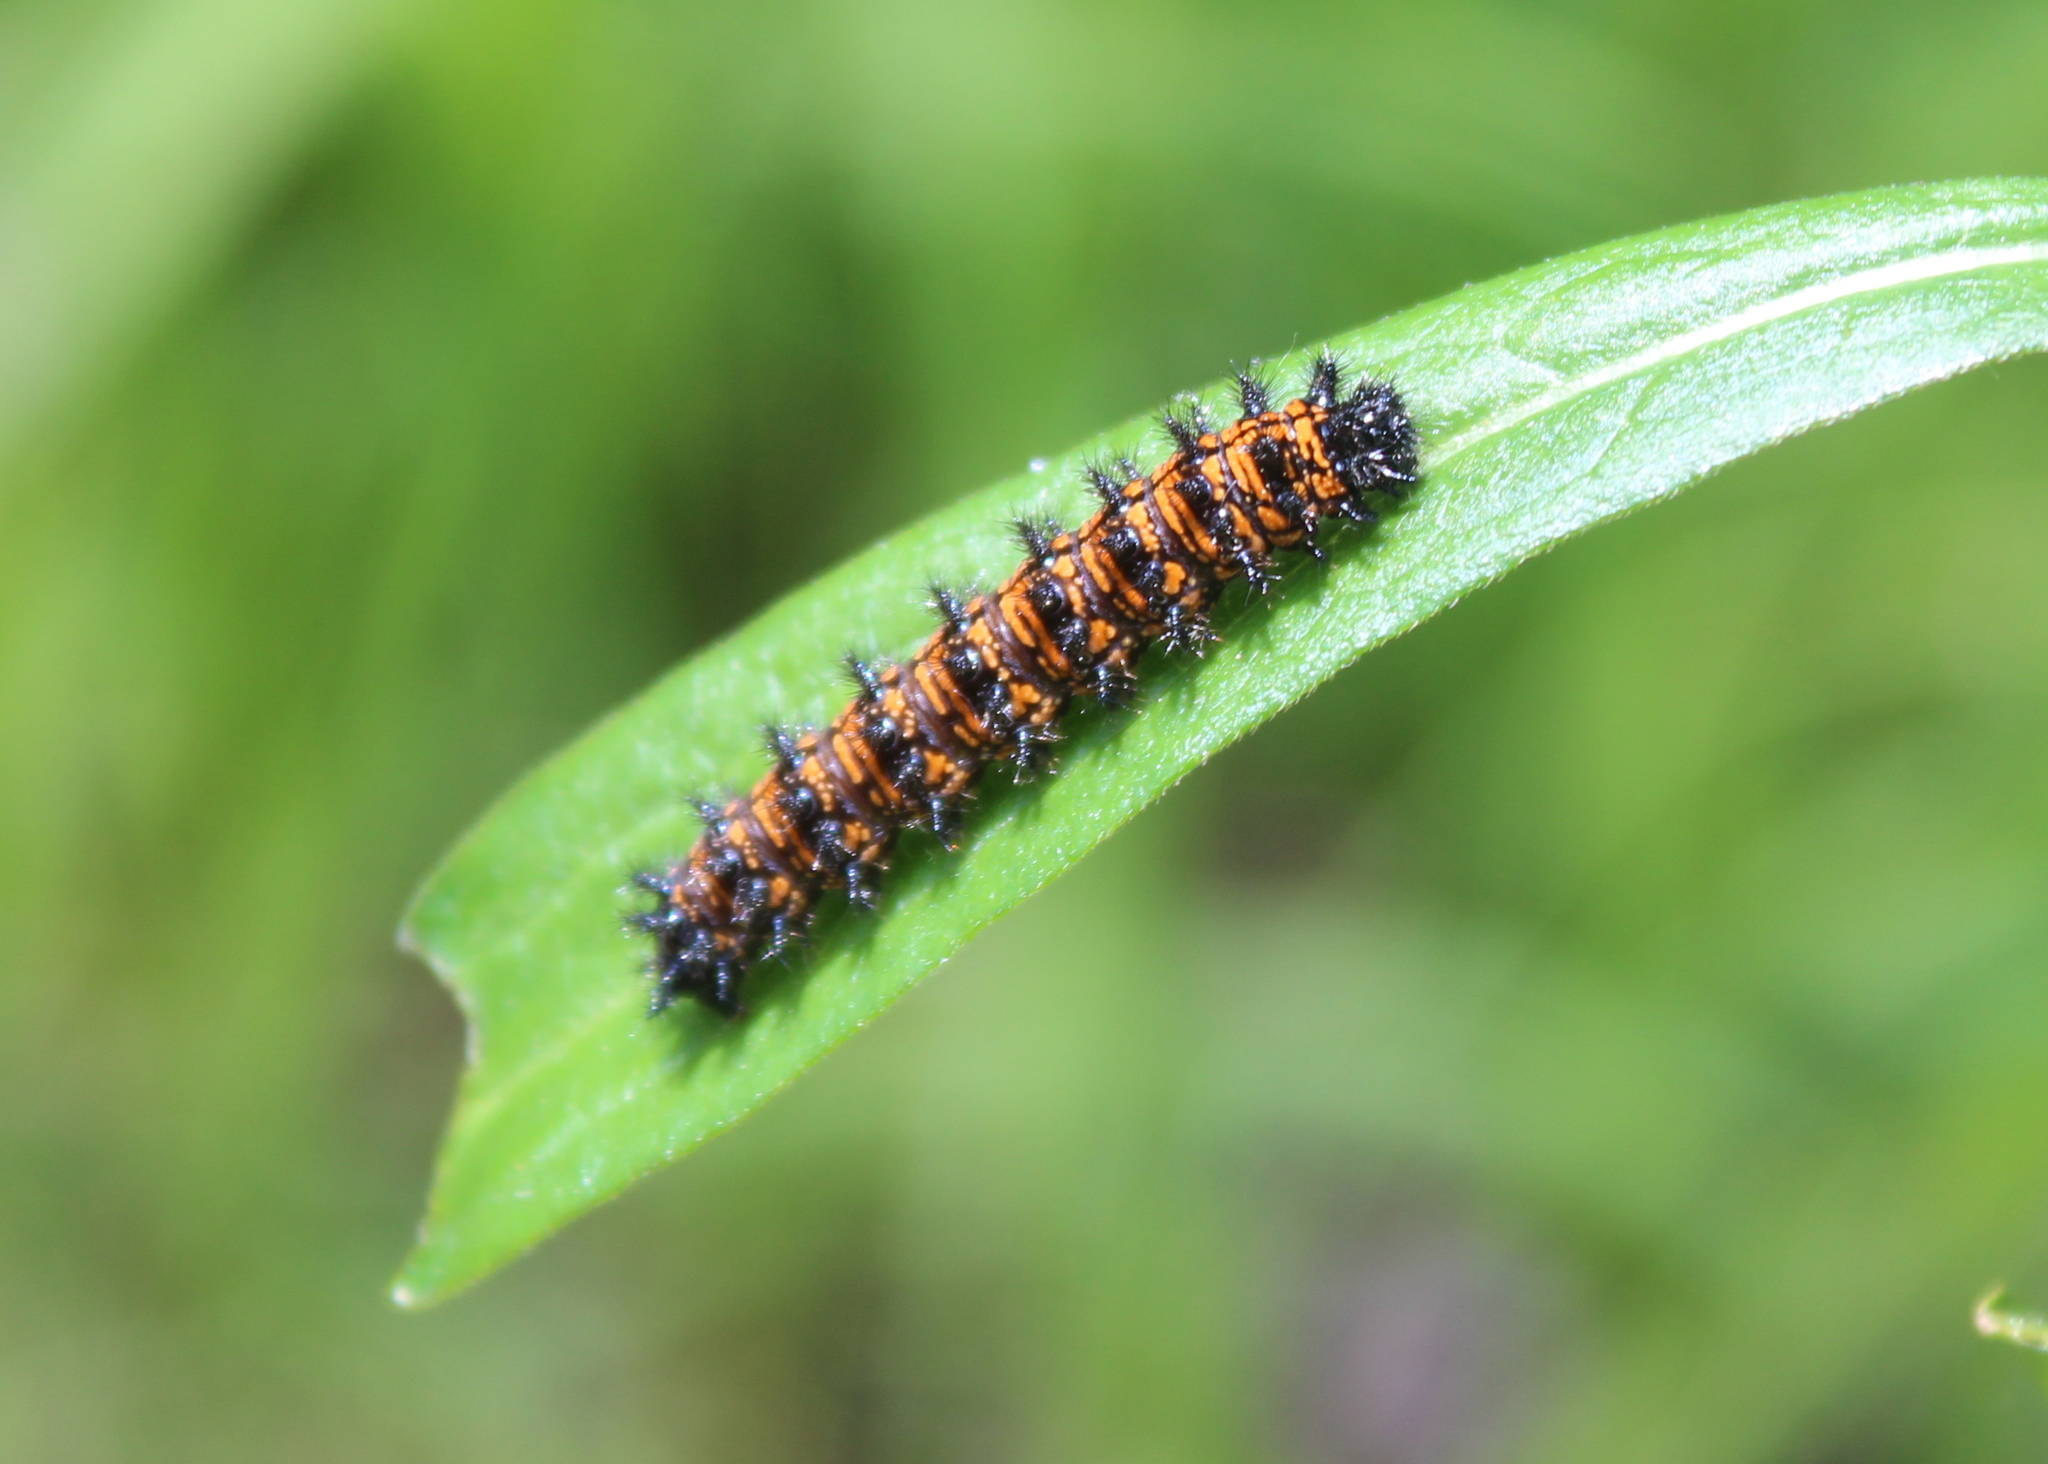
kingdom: Animalia
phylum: Arthropoda
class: Insecta
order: Lepidoptera
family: Nymphalidae
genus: Chlosyne
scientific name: Chlosyne harrisii
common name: Harris's checkerspot
